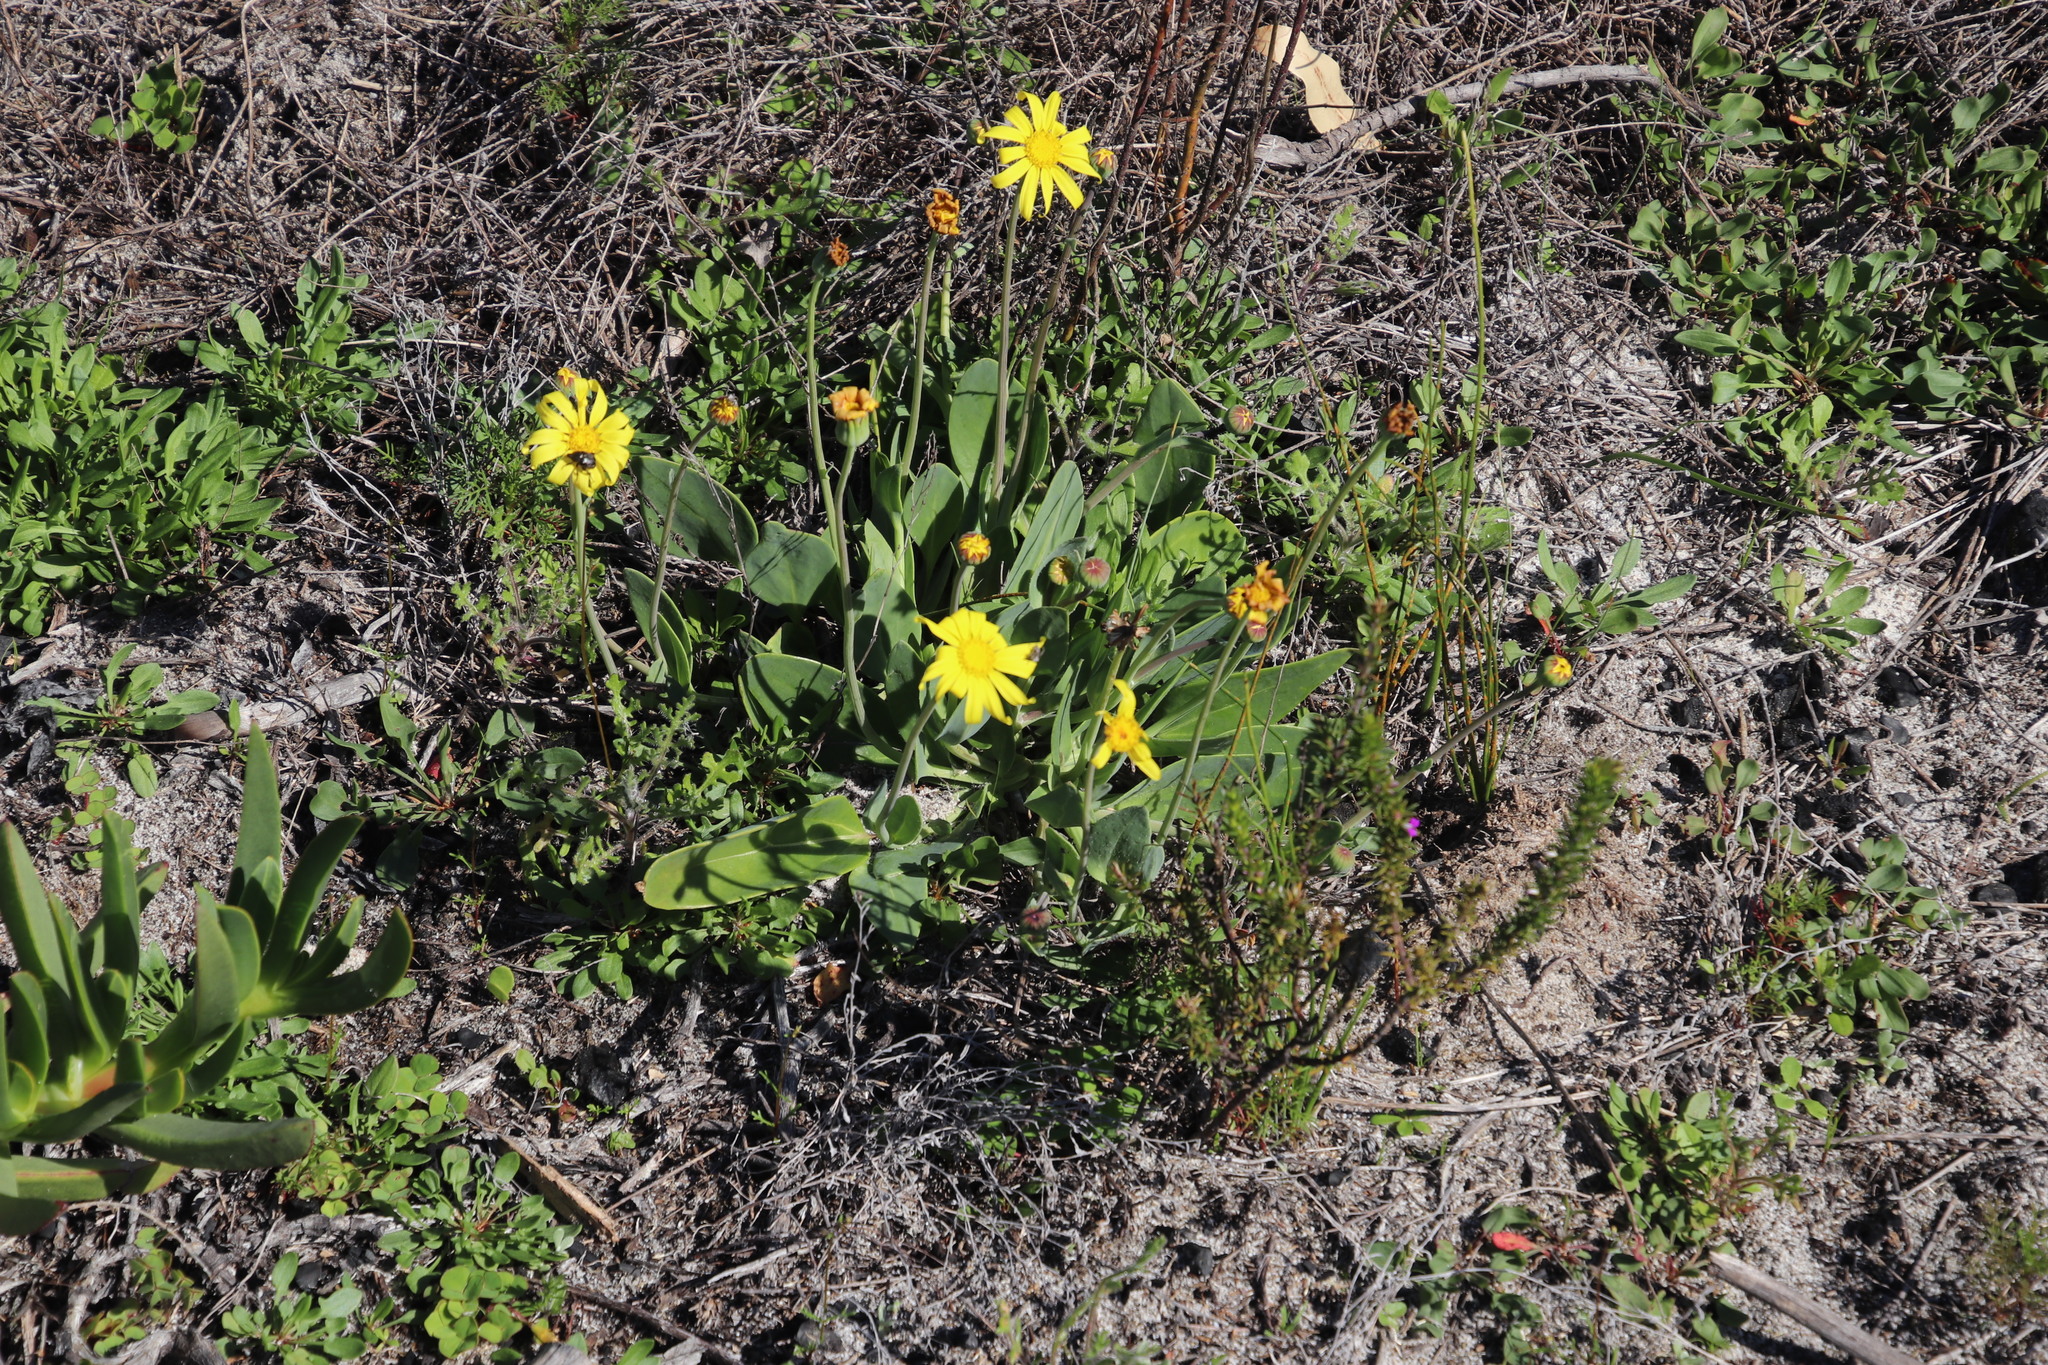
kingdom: Plantae
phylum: Tracheophyta
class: Magnoliopsida
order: Asterales
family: Asteraceae
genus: Othonna
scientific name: Othonna bulbosa
